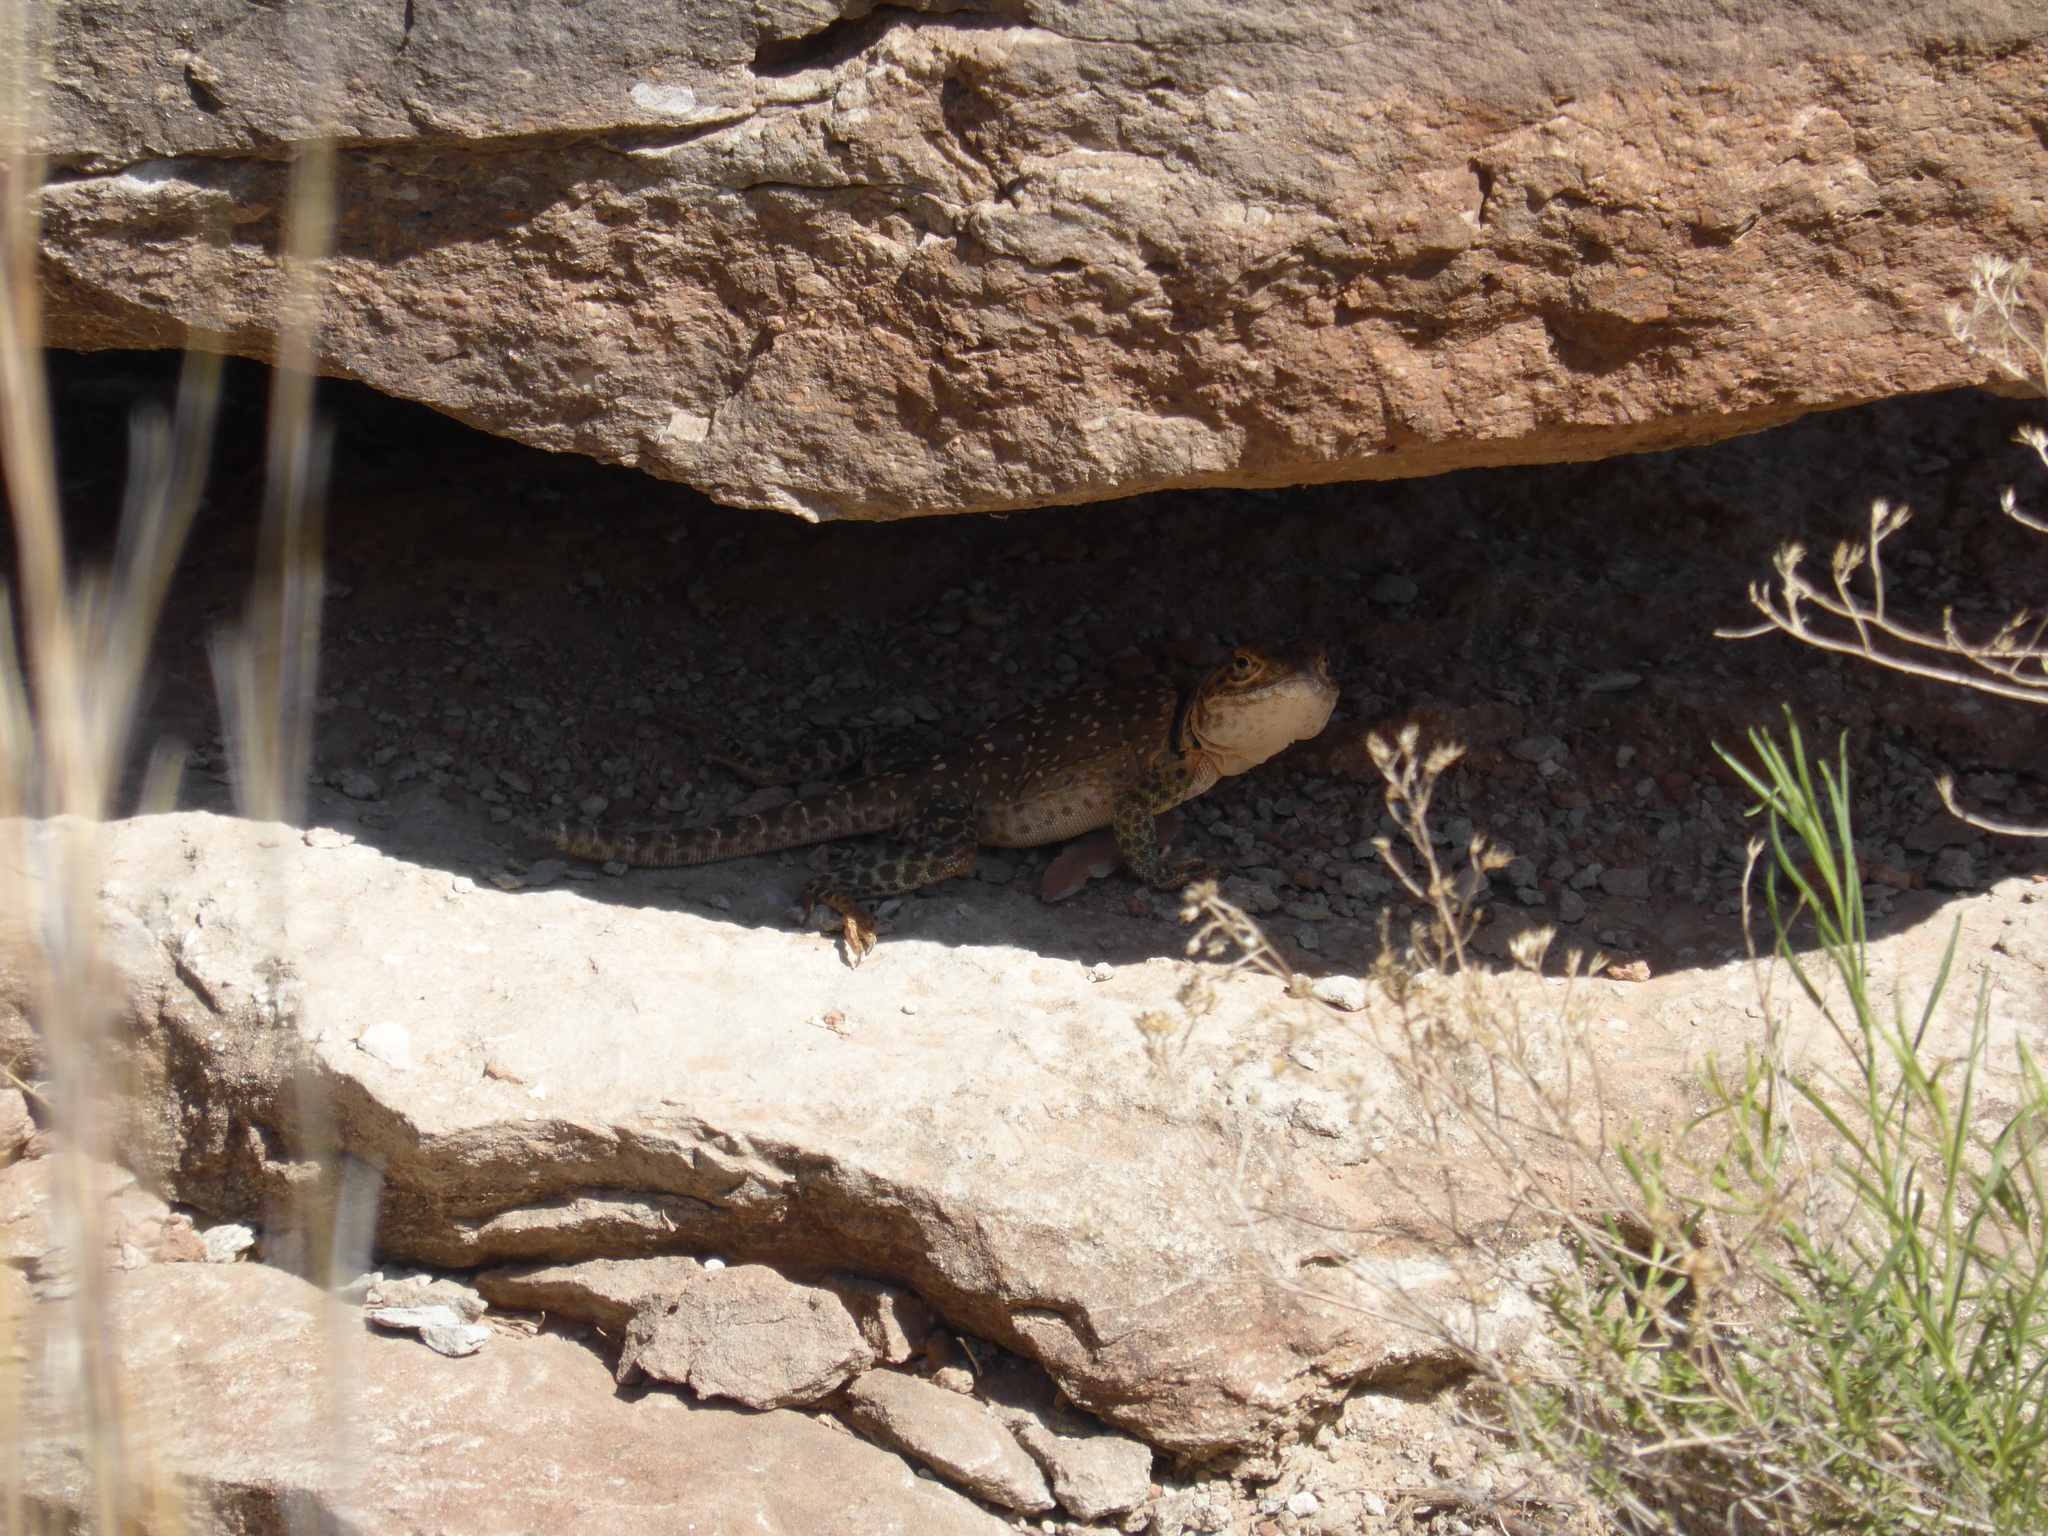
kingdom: Animalia
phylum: Chordata
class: Squamata
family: Crotaphytidae
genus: Crotaphytus
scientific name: Crotaphytus collaris
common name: Collared lizard
